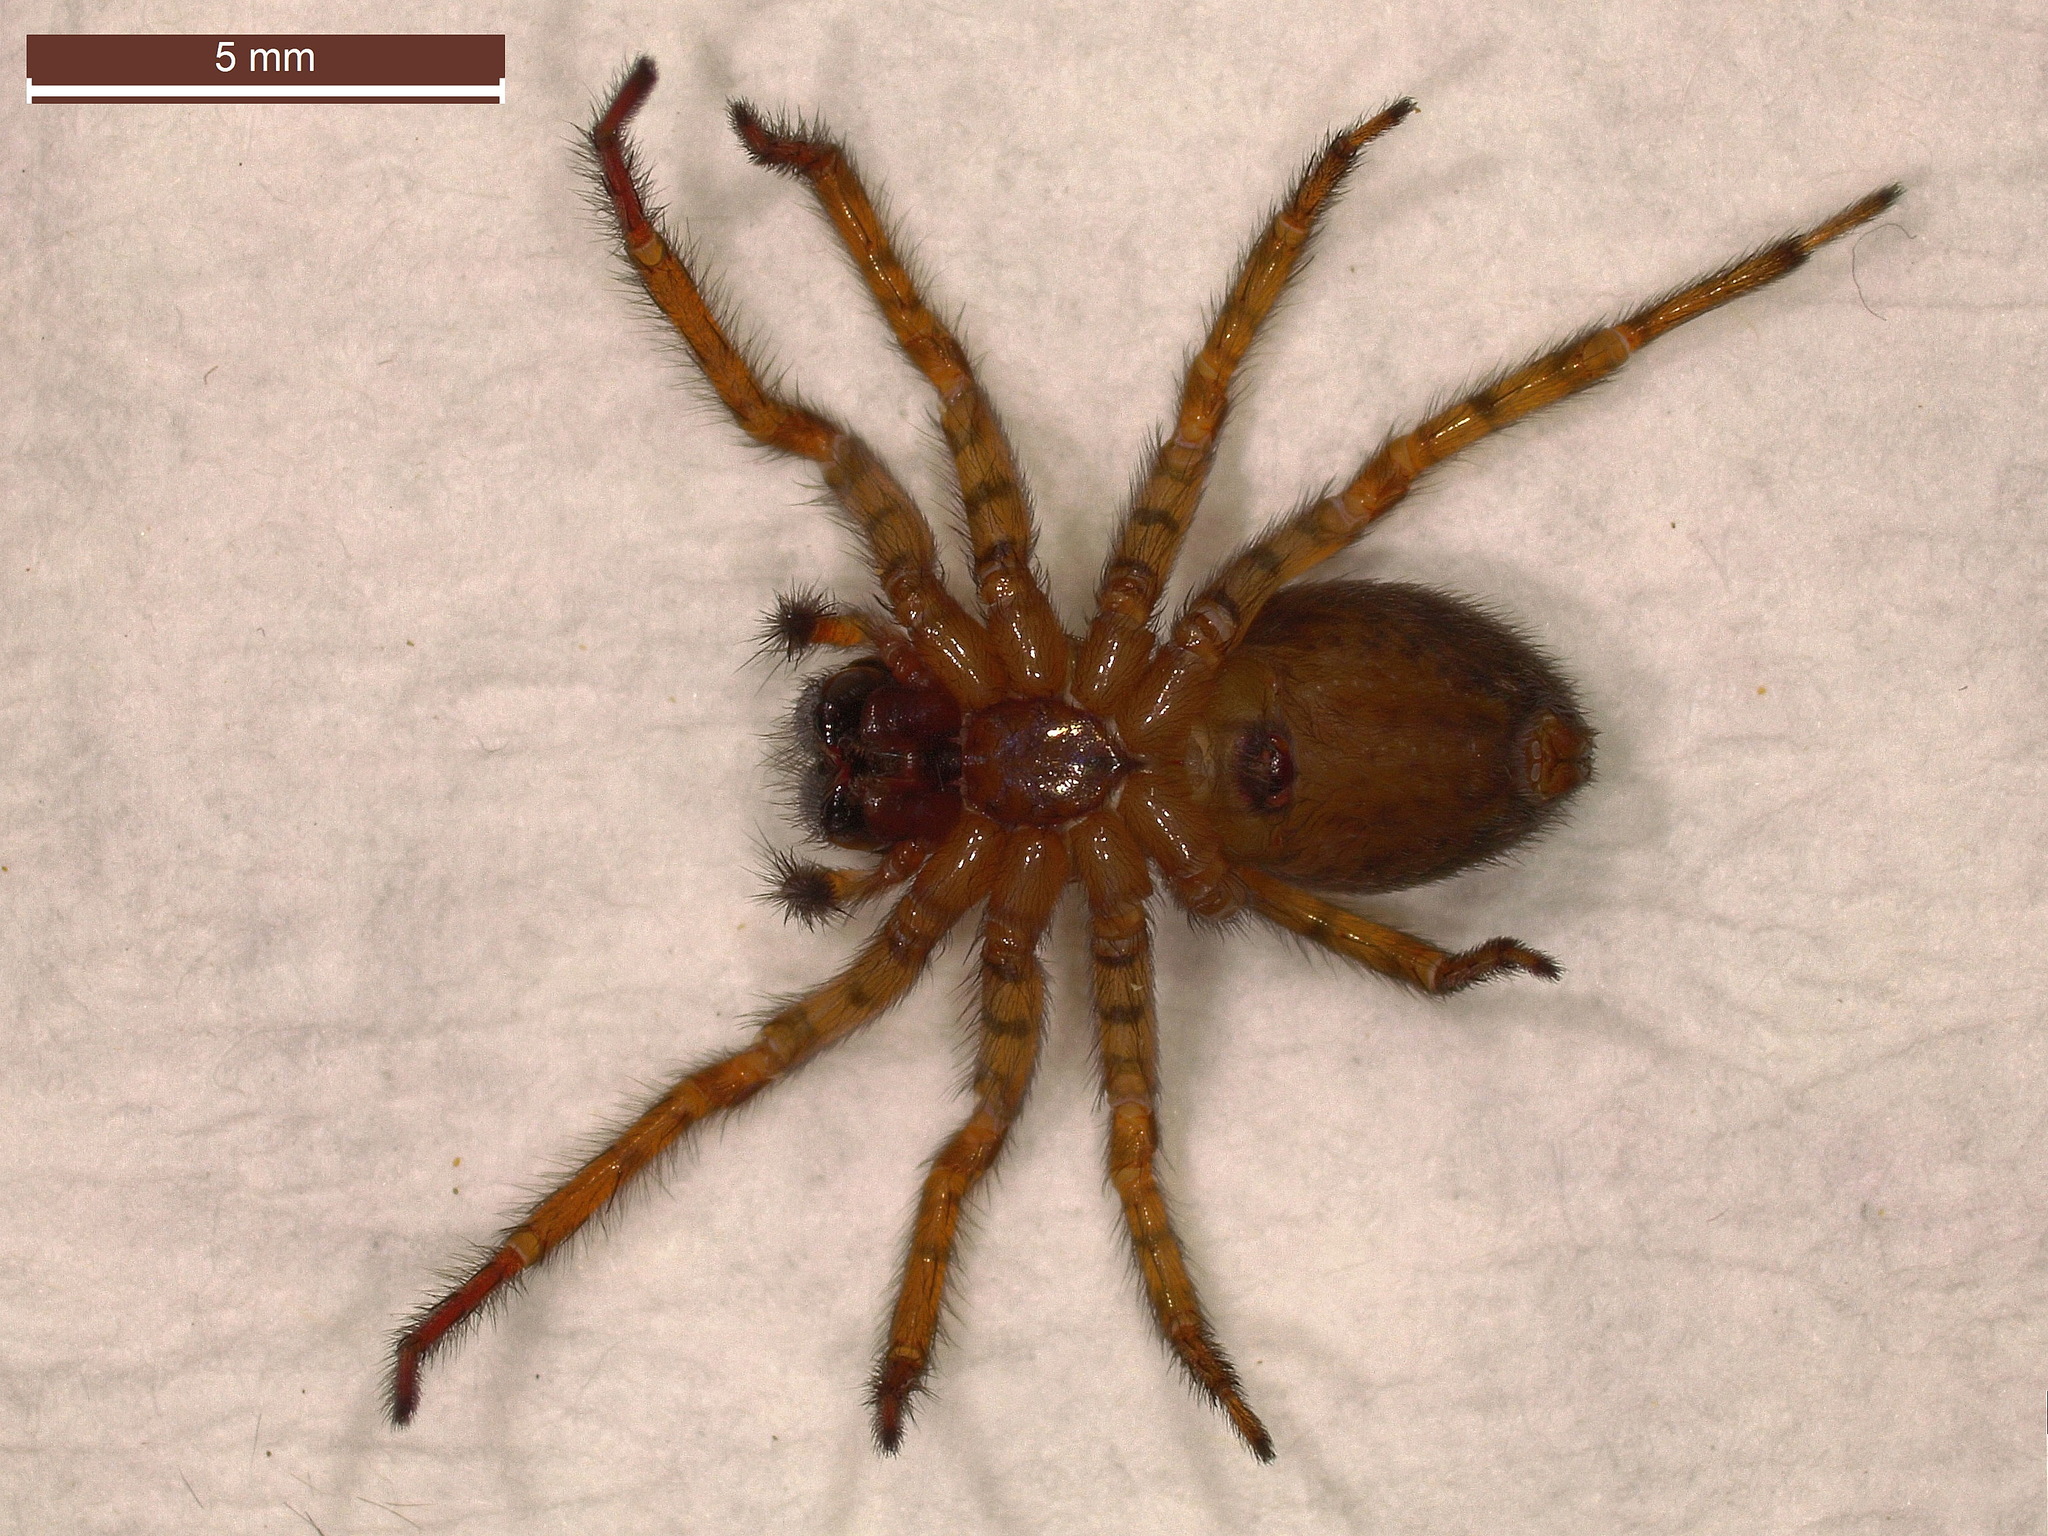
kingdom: Animalia
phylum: Arthropoda
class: Arachnida
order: Araneae
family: Amaurobiidae
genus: Amaurobius
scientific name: Amaurobius fenestralis
